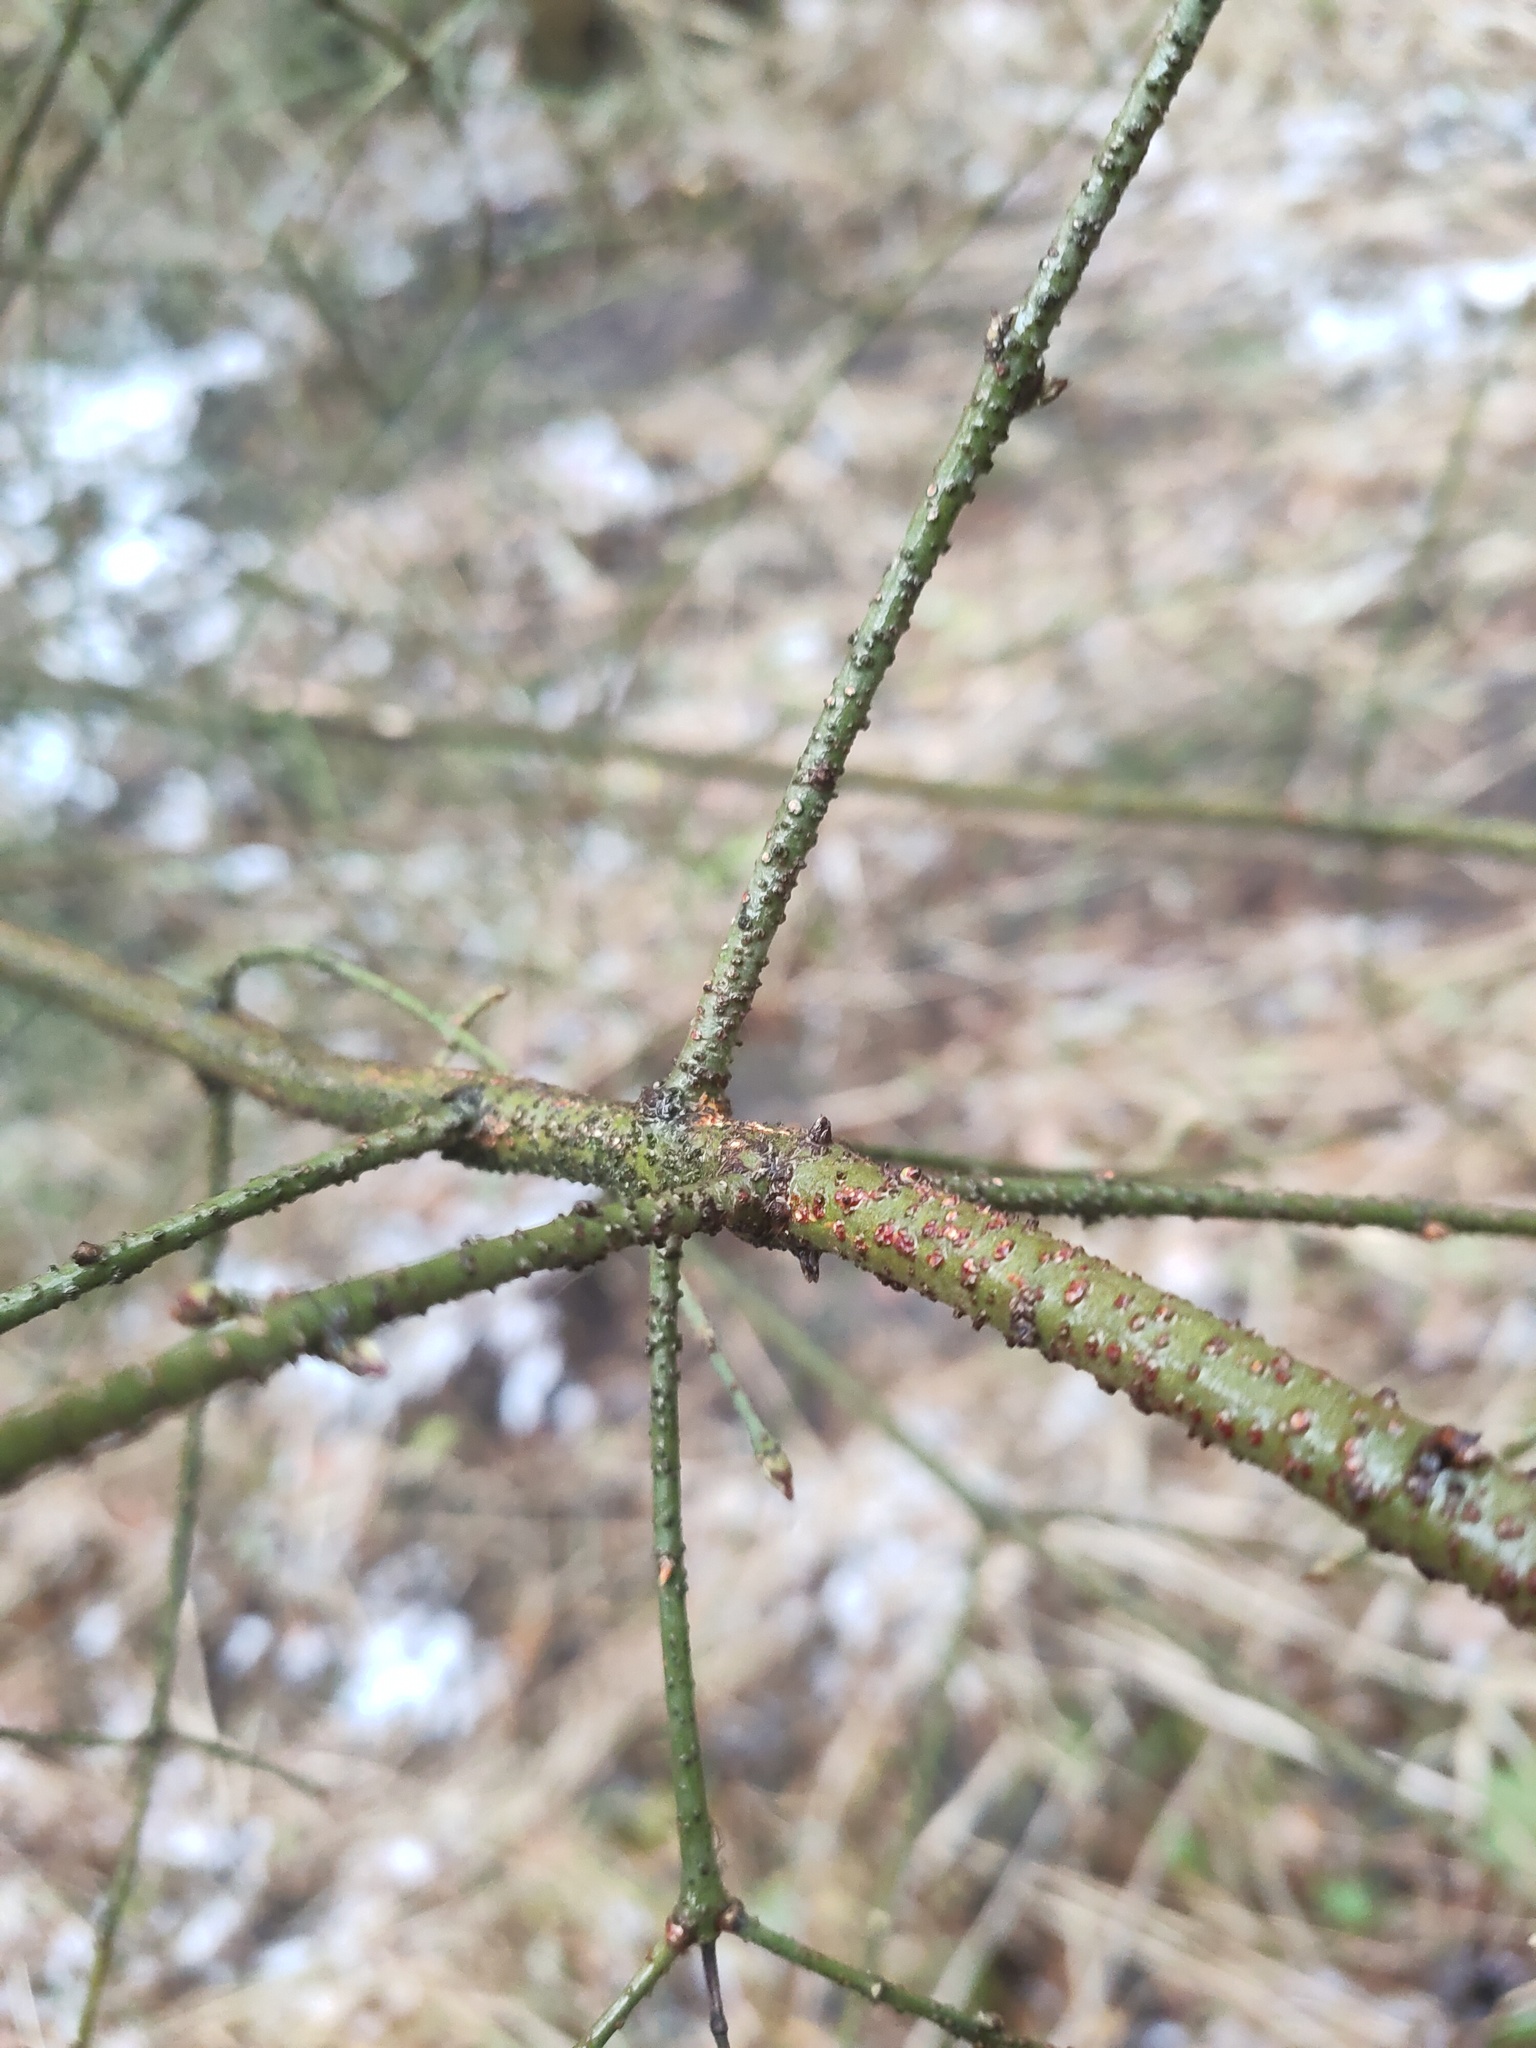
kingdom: Plantae
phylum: Tracheophyta
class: Magnoliopsida
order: Celastrales
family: Celastraceae
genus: Euonymus
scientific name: Euonymus verrucosus
